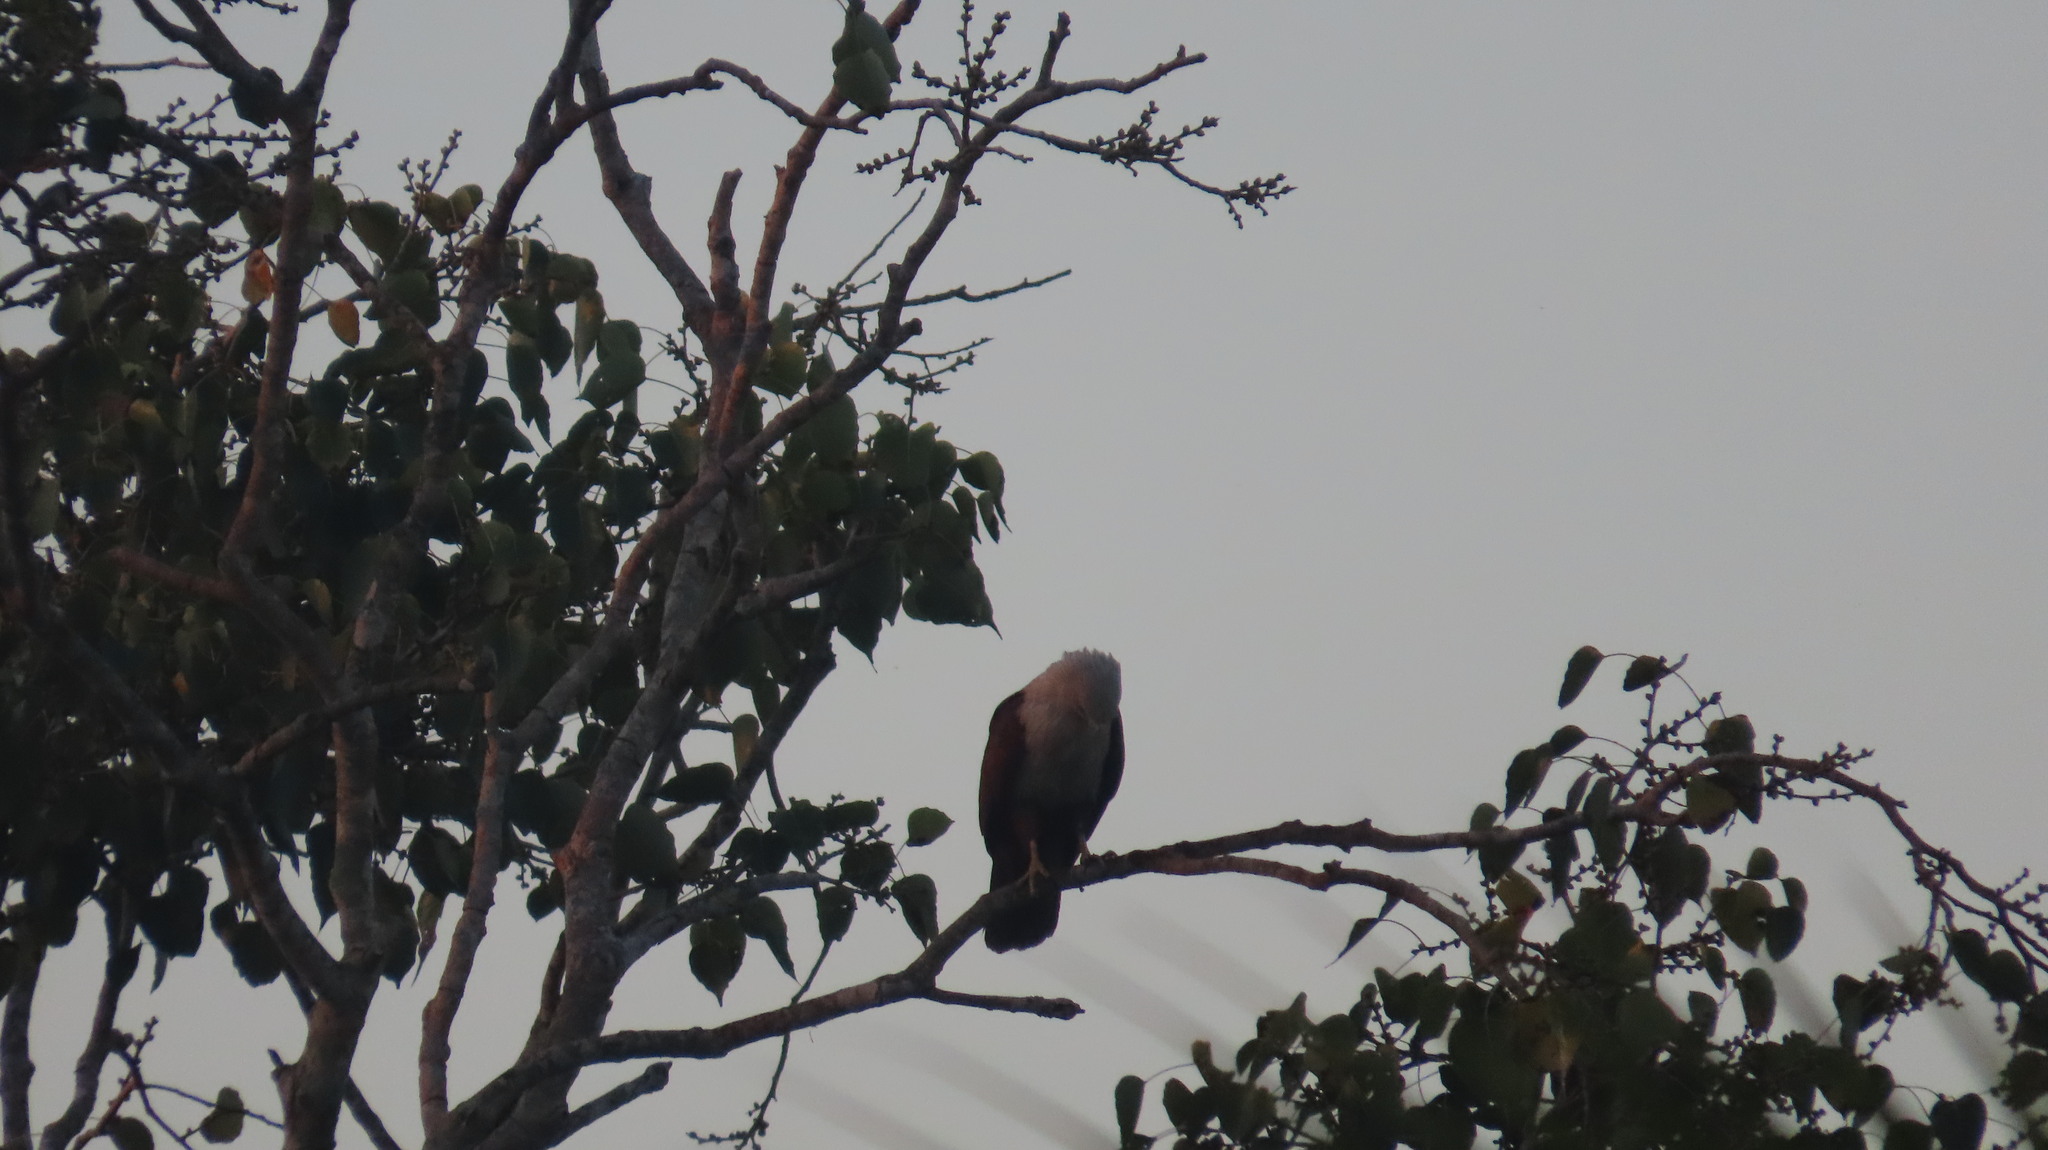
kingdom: Animalia
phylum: Chordata
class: Aves
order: Accipitriformes
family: Accipitridae
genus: Haliastur
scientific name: Haliastur indus
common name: Brahminy kite
